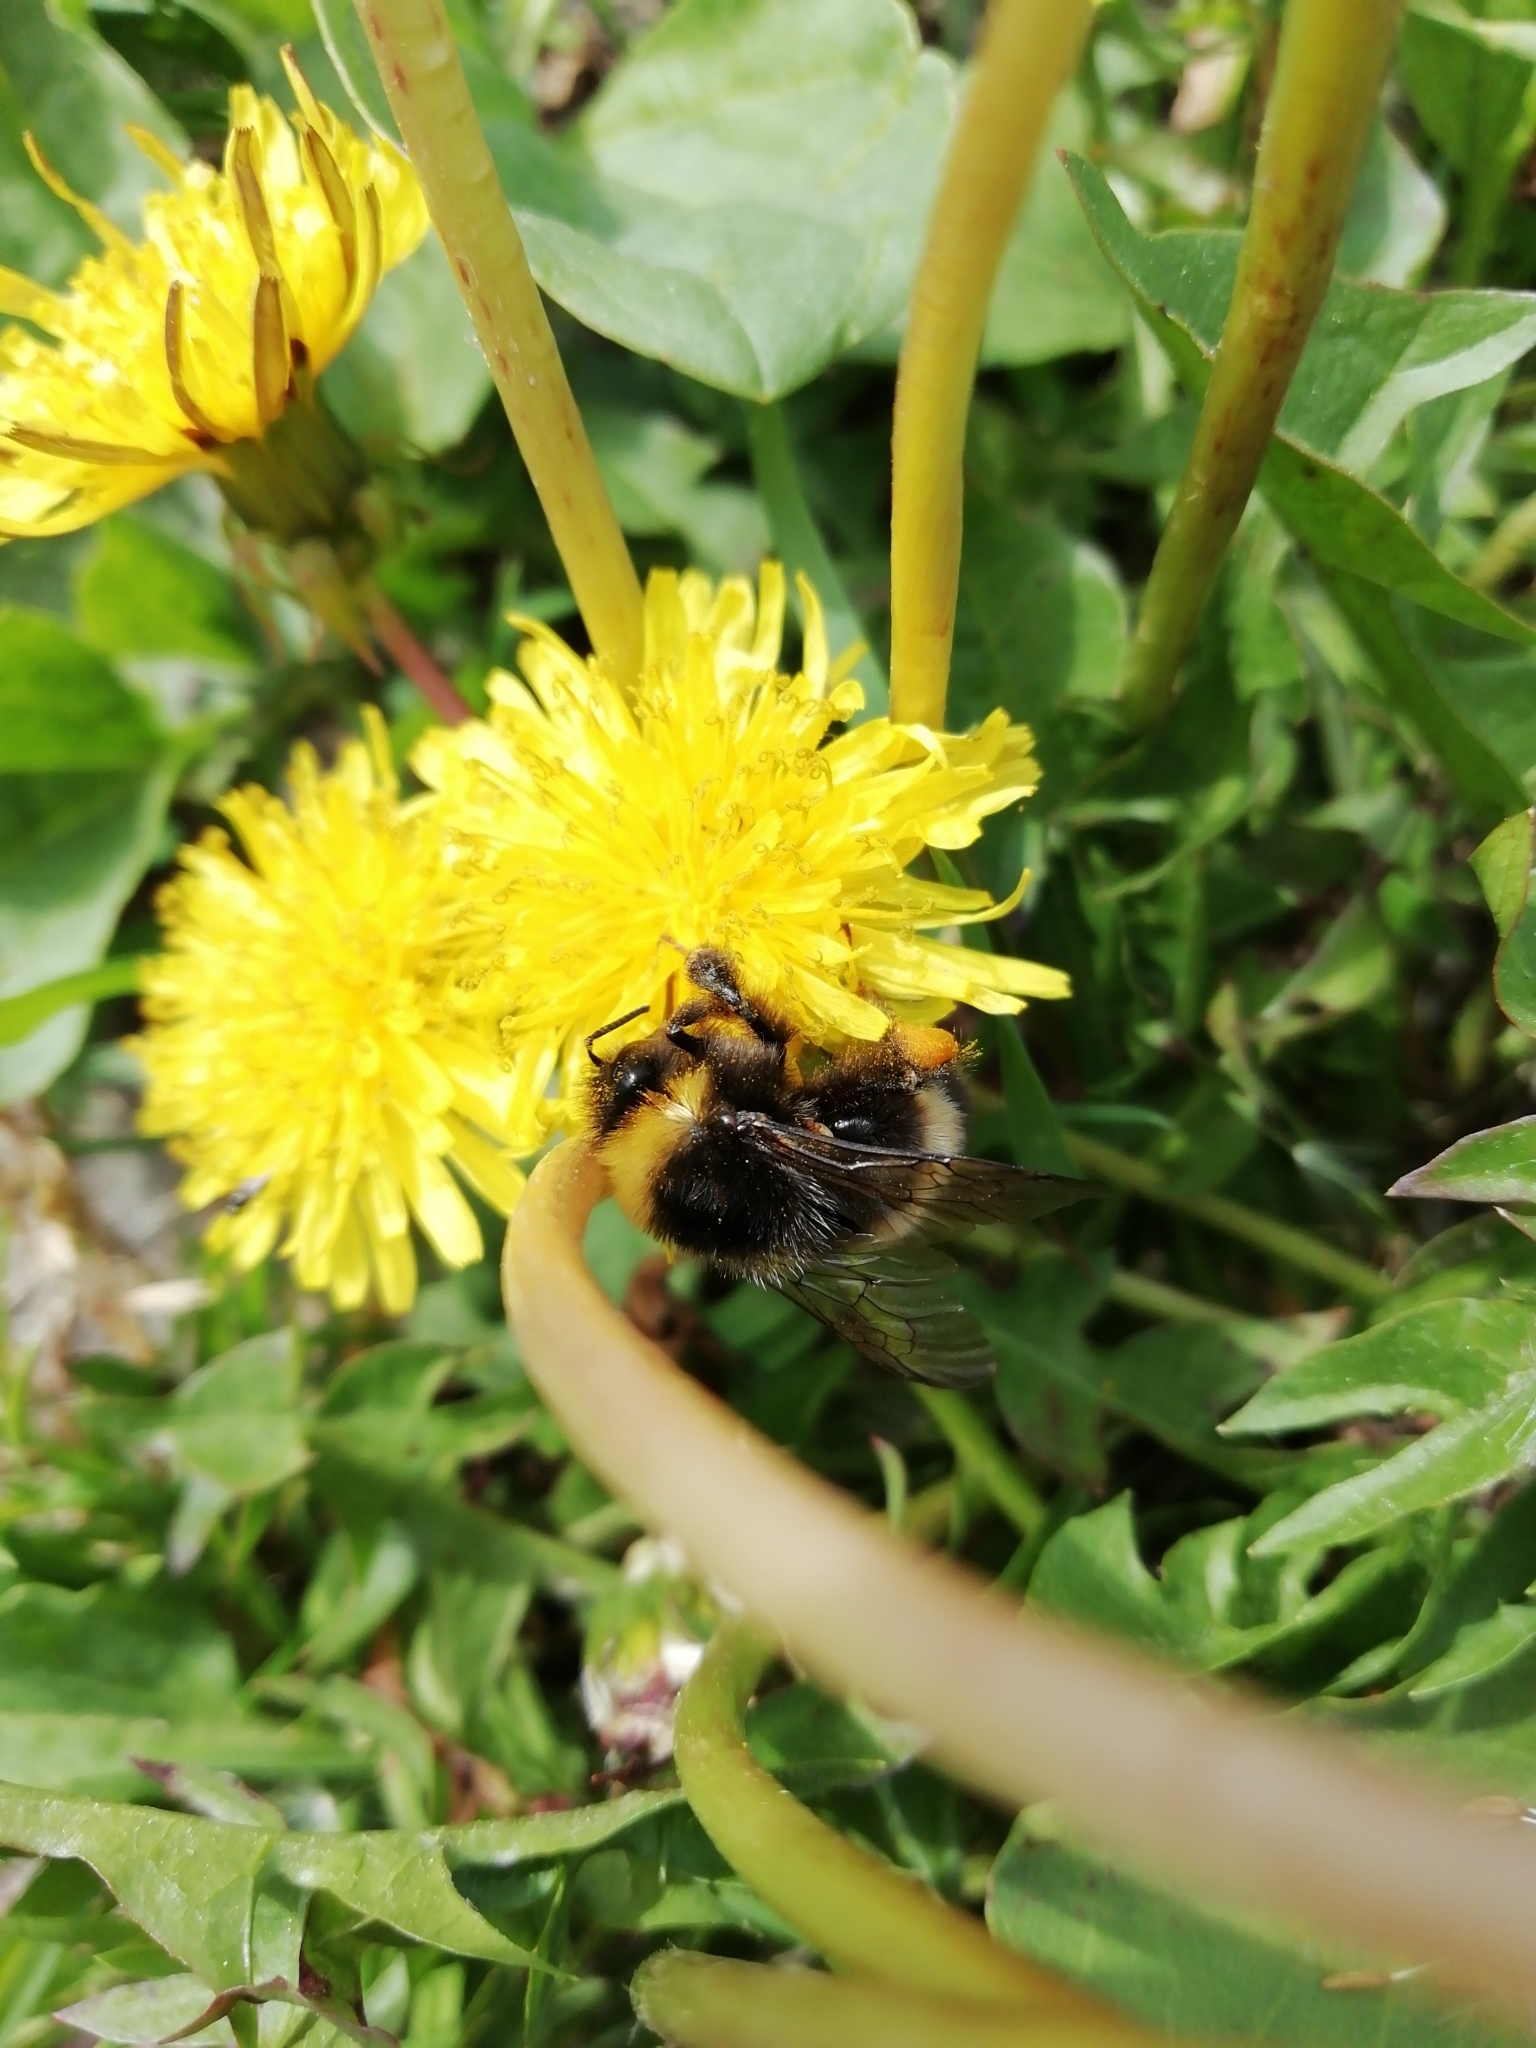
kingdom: Animalia
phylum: Arthropoda
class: Insecta
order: Hymenoptera
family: Apidae
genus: Bombus
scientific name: Bombus
